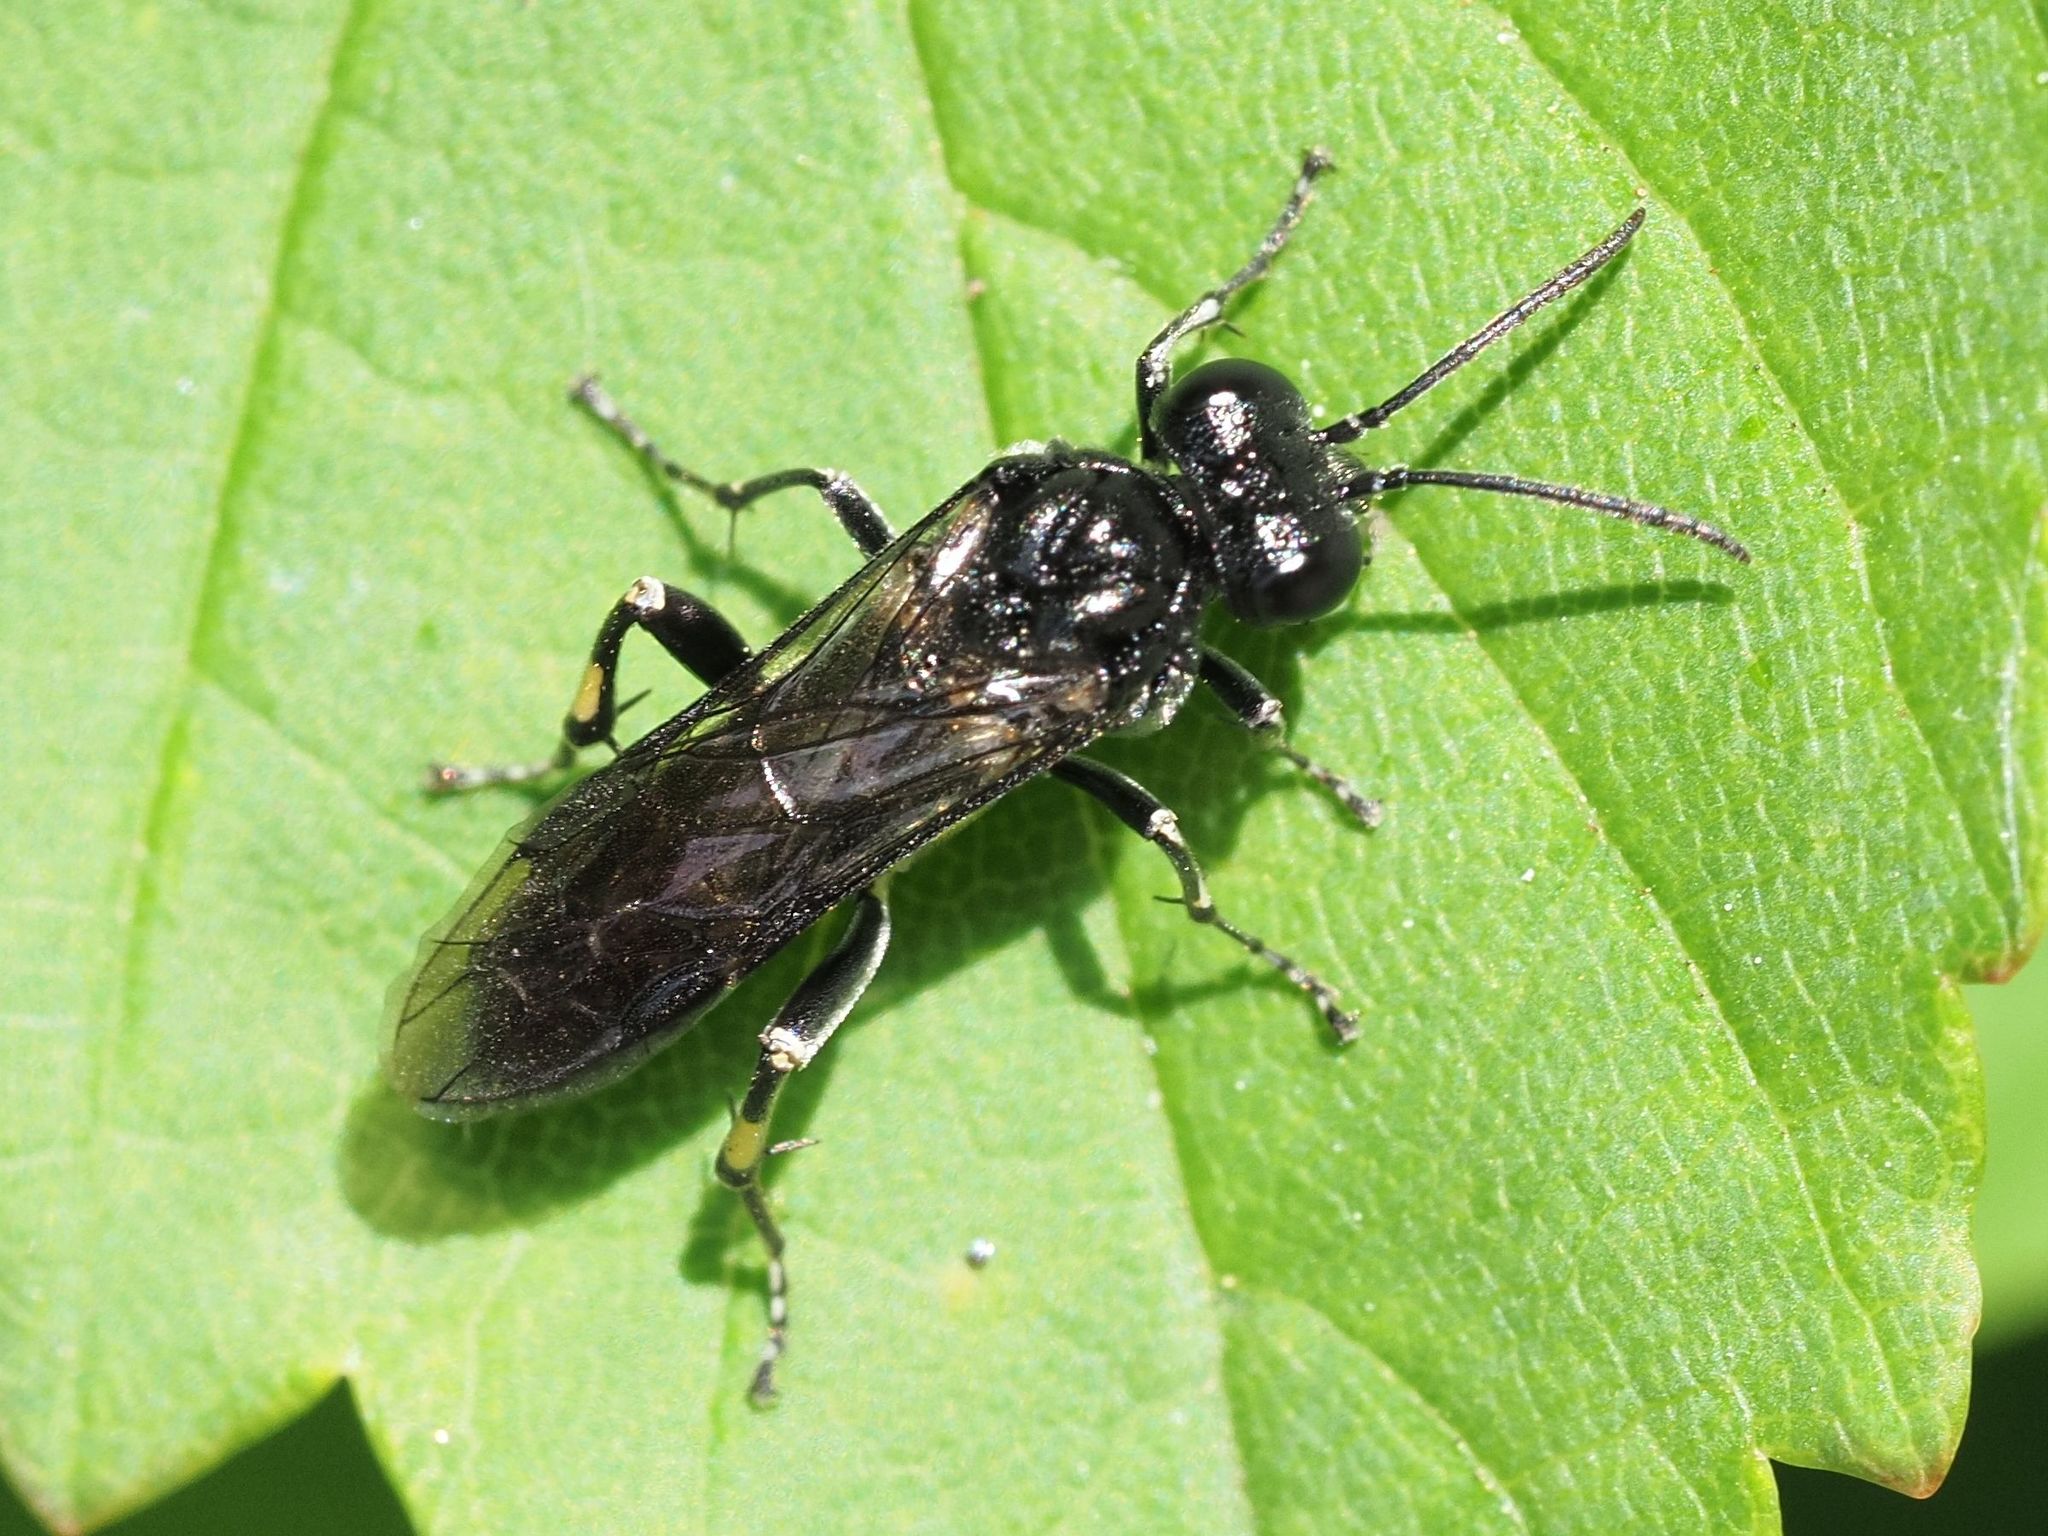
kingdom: Animalia
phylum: Arthropoda
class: Insecta
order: Hymenoptera
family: Tenthredinidae
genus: Macrophya
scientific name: Macrophya ribis
